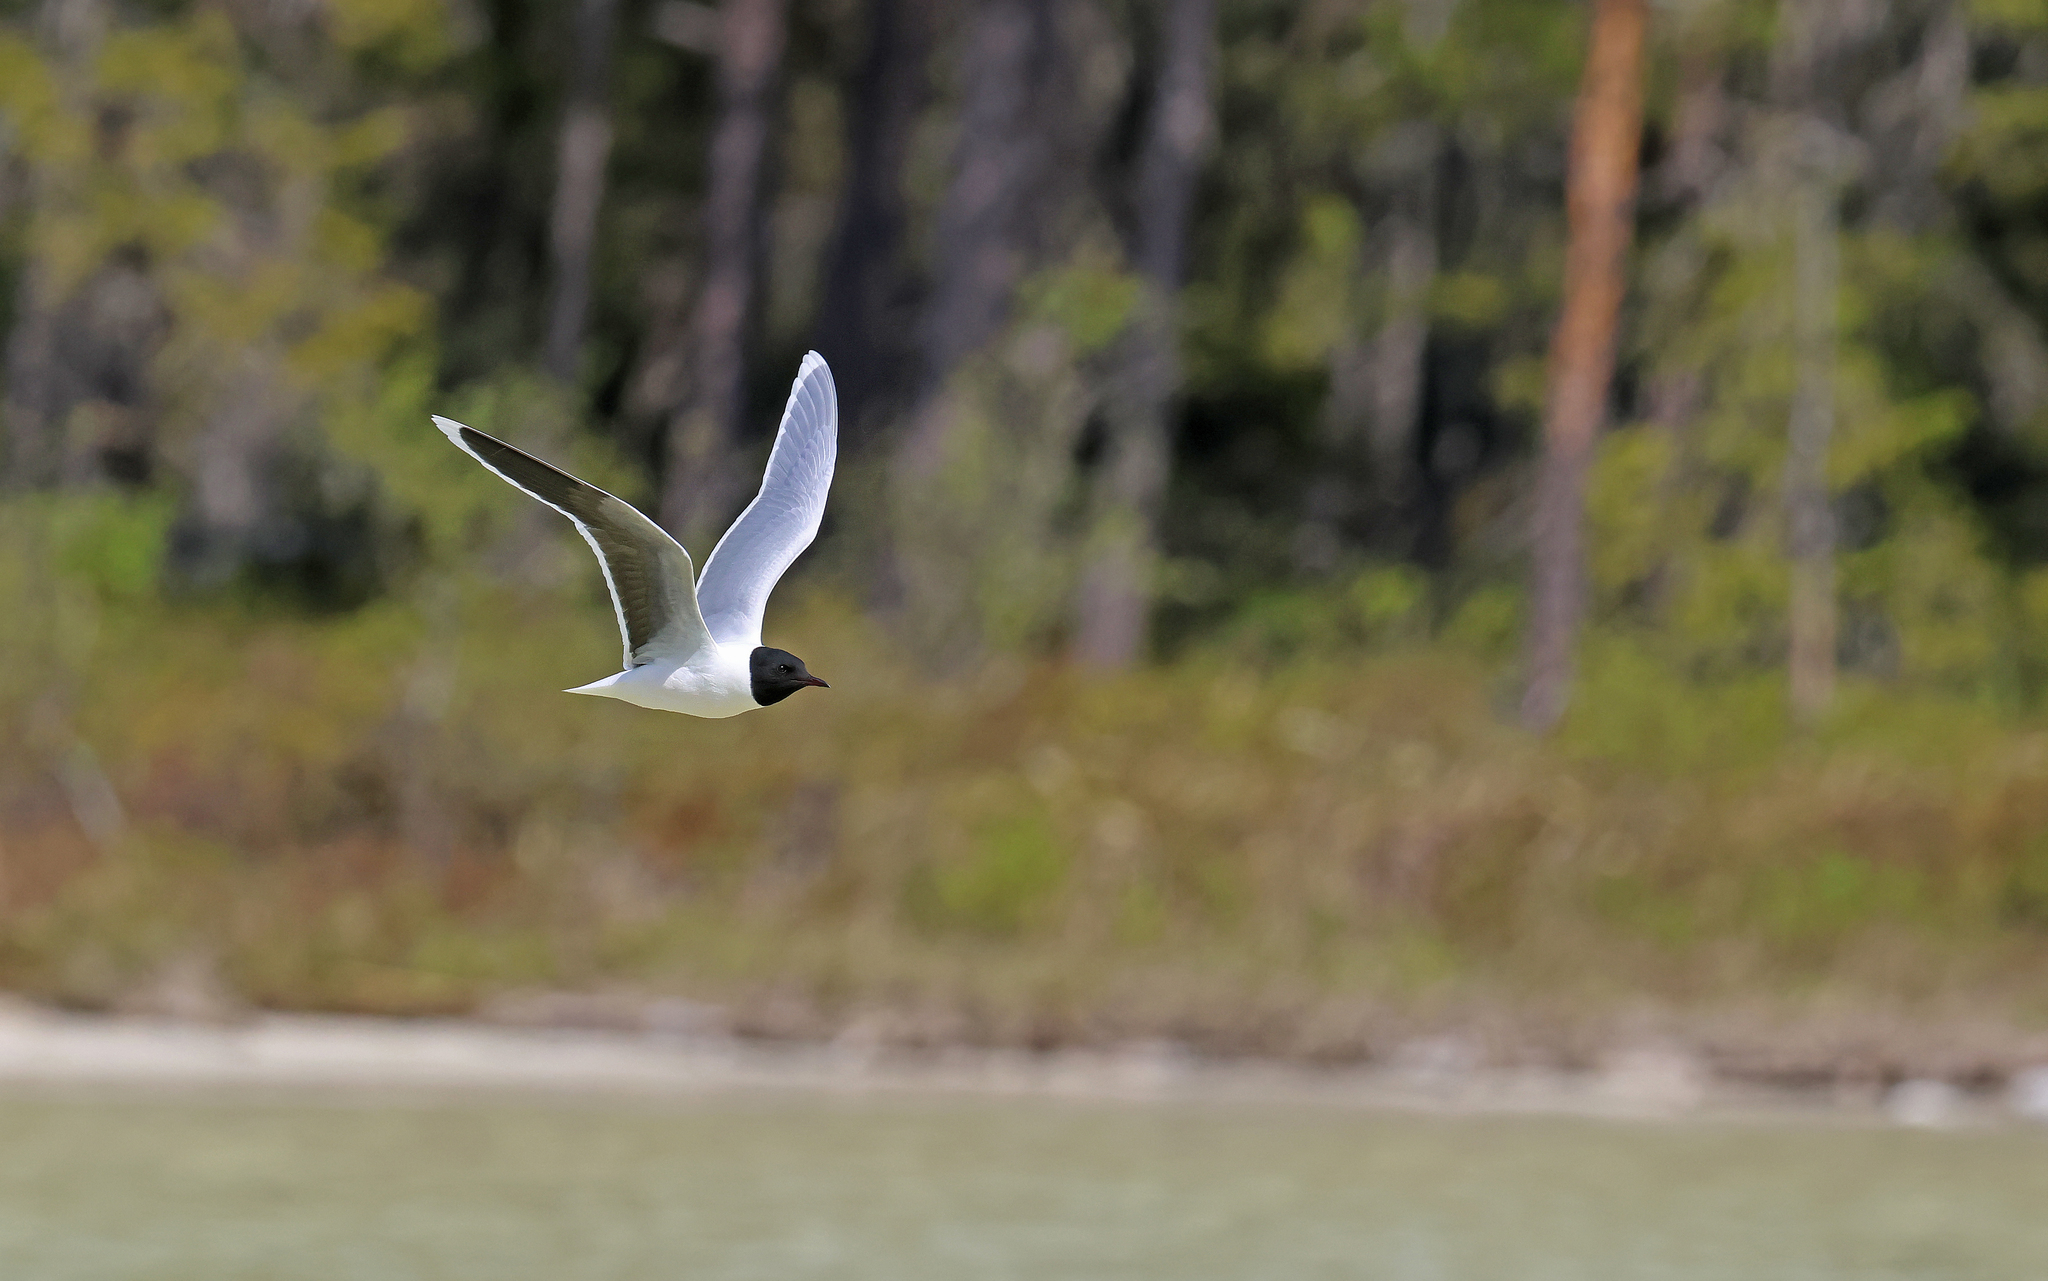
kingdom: Animalia
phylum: Chordata
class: Aves
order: Charadriiformes
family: Laridae
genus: Hydrocoloeus
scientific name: Hydrocoloeus minutus
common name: Little gull
